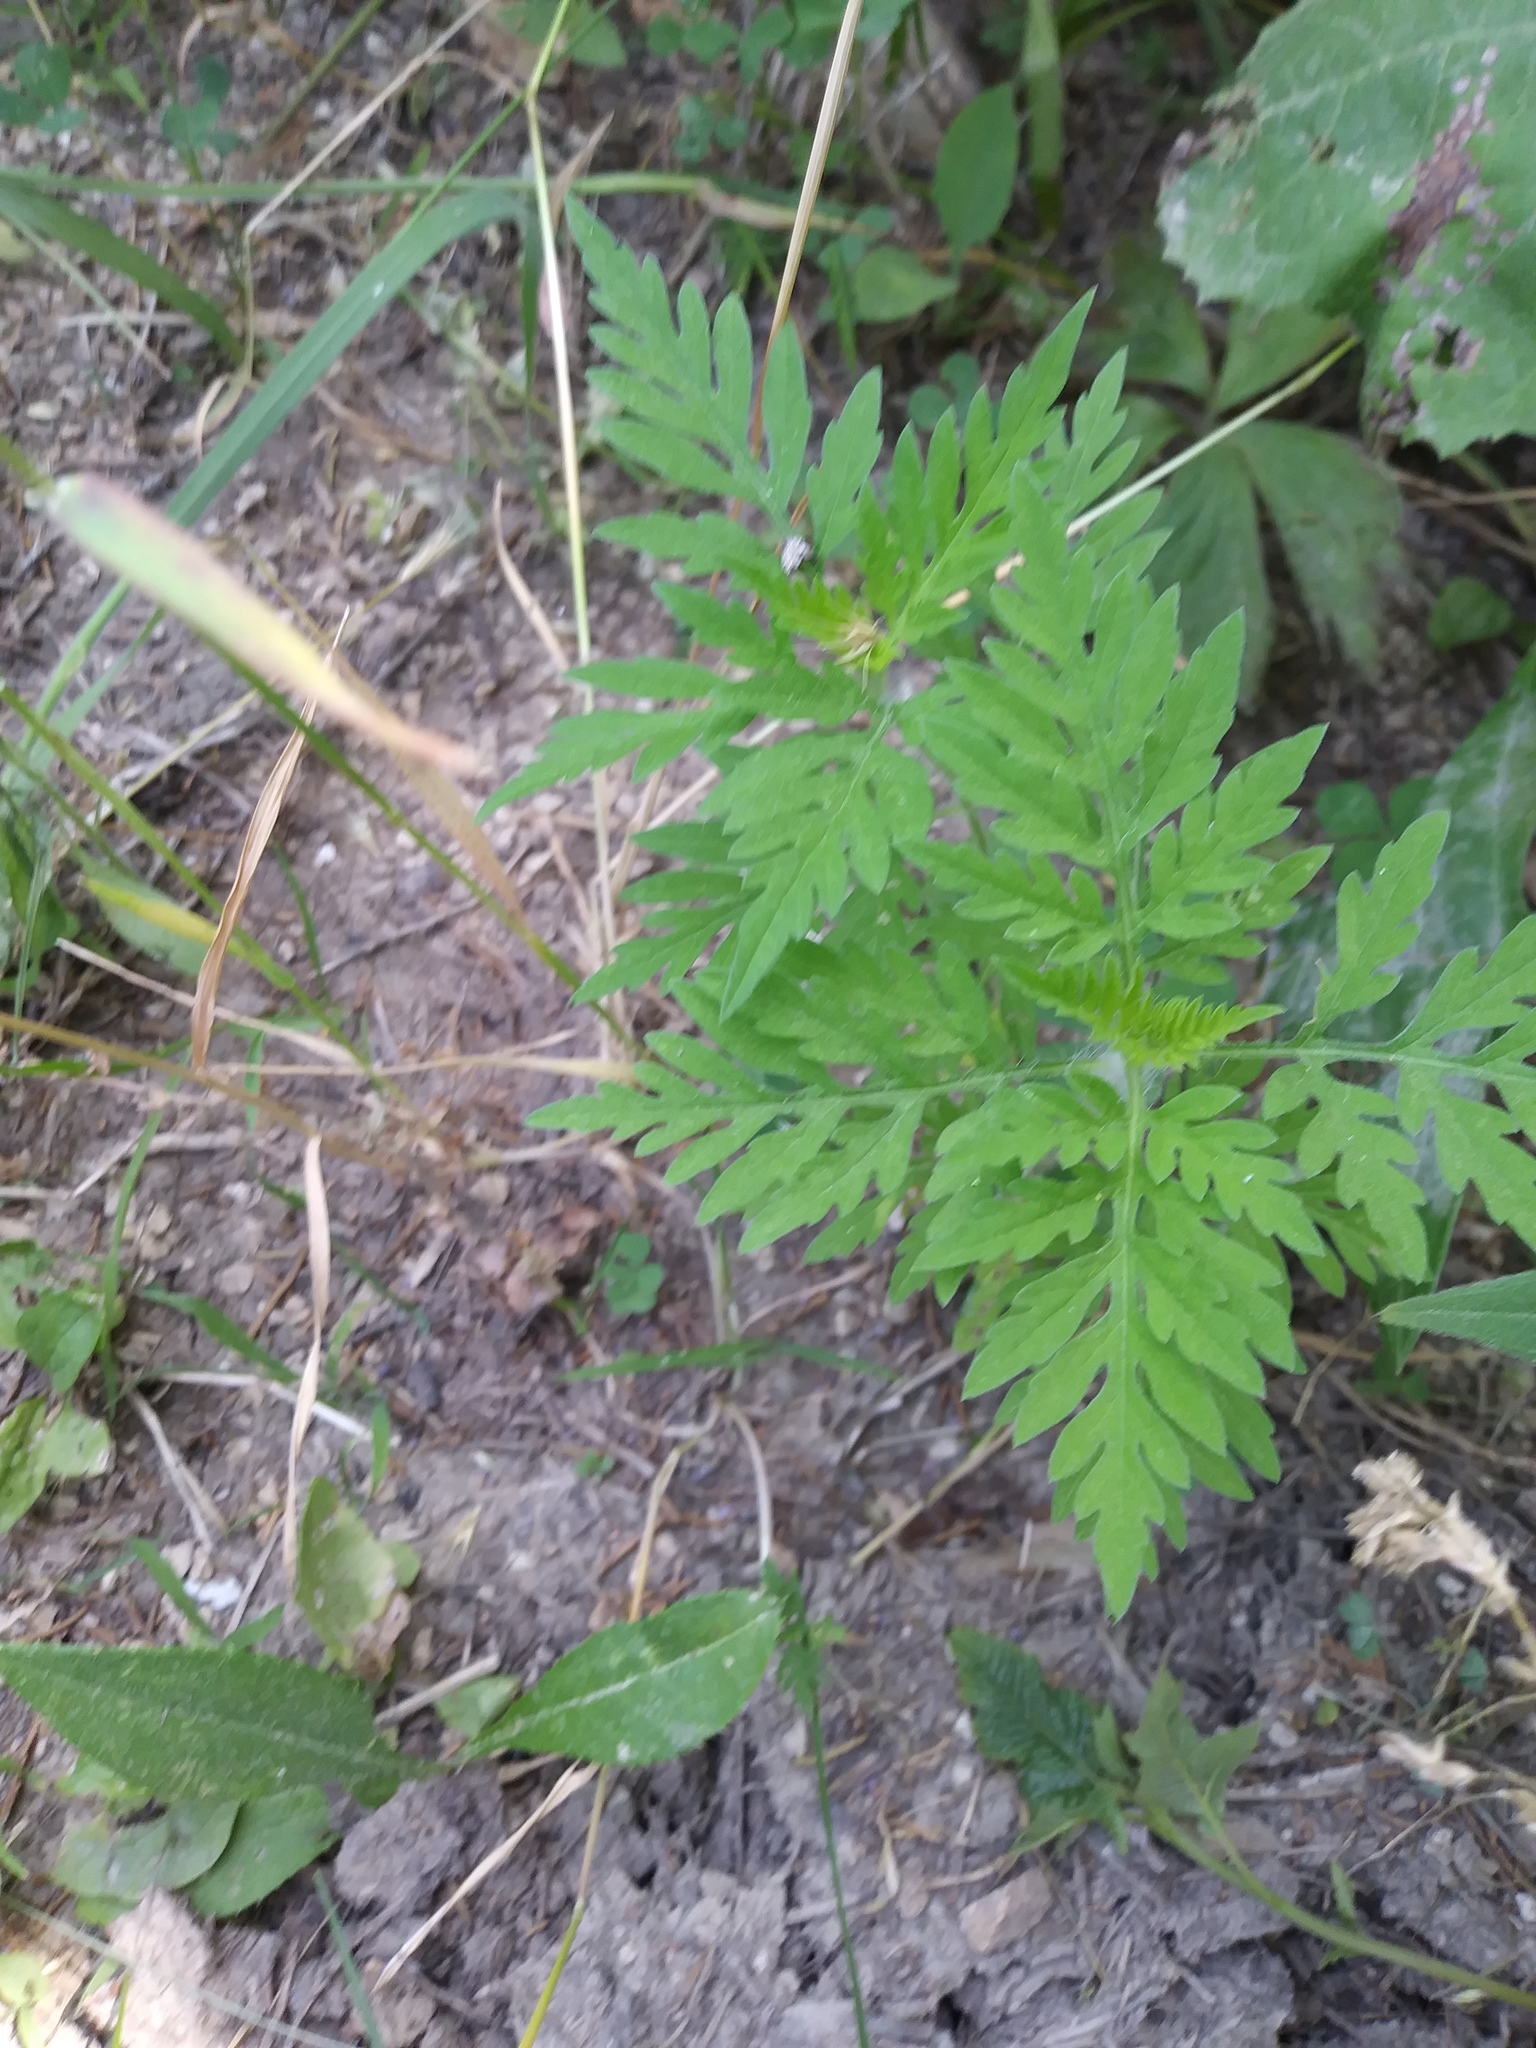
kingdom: Plantae
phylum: Tracheophyta
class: Magnoliopsida
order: Asterales
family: Asteraceae
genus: Ambrosia
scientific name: Ambrosia artemisiifolia
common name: Annual ragweed
